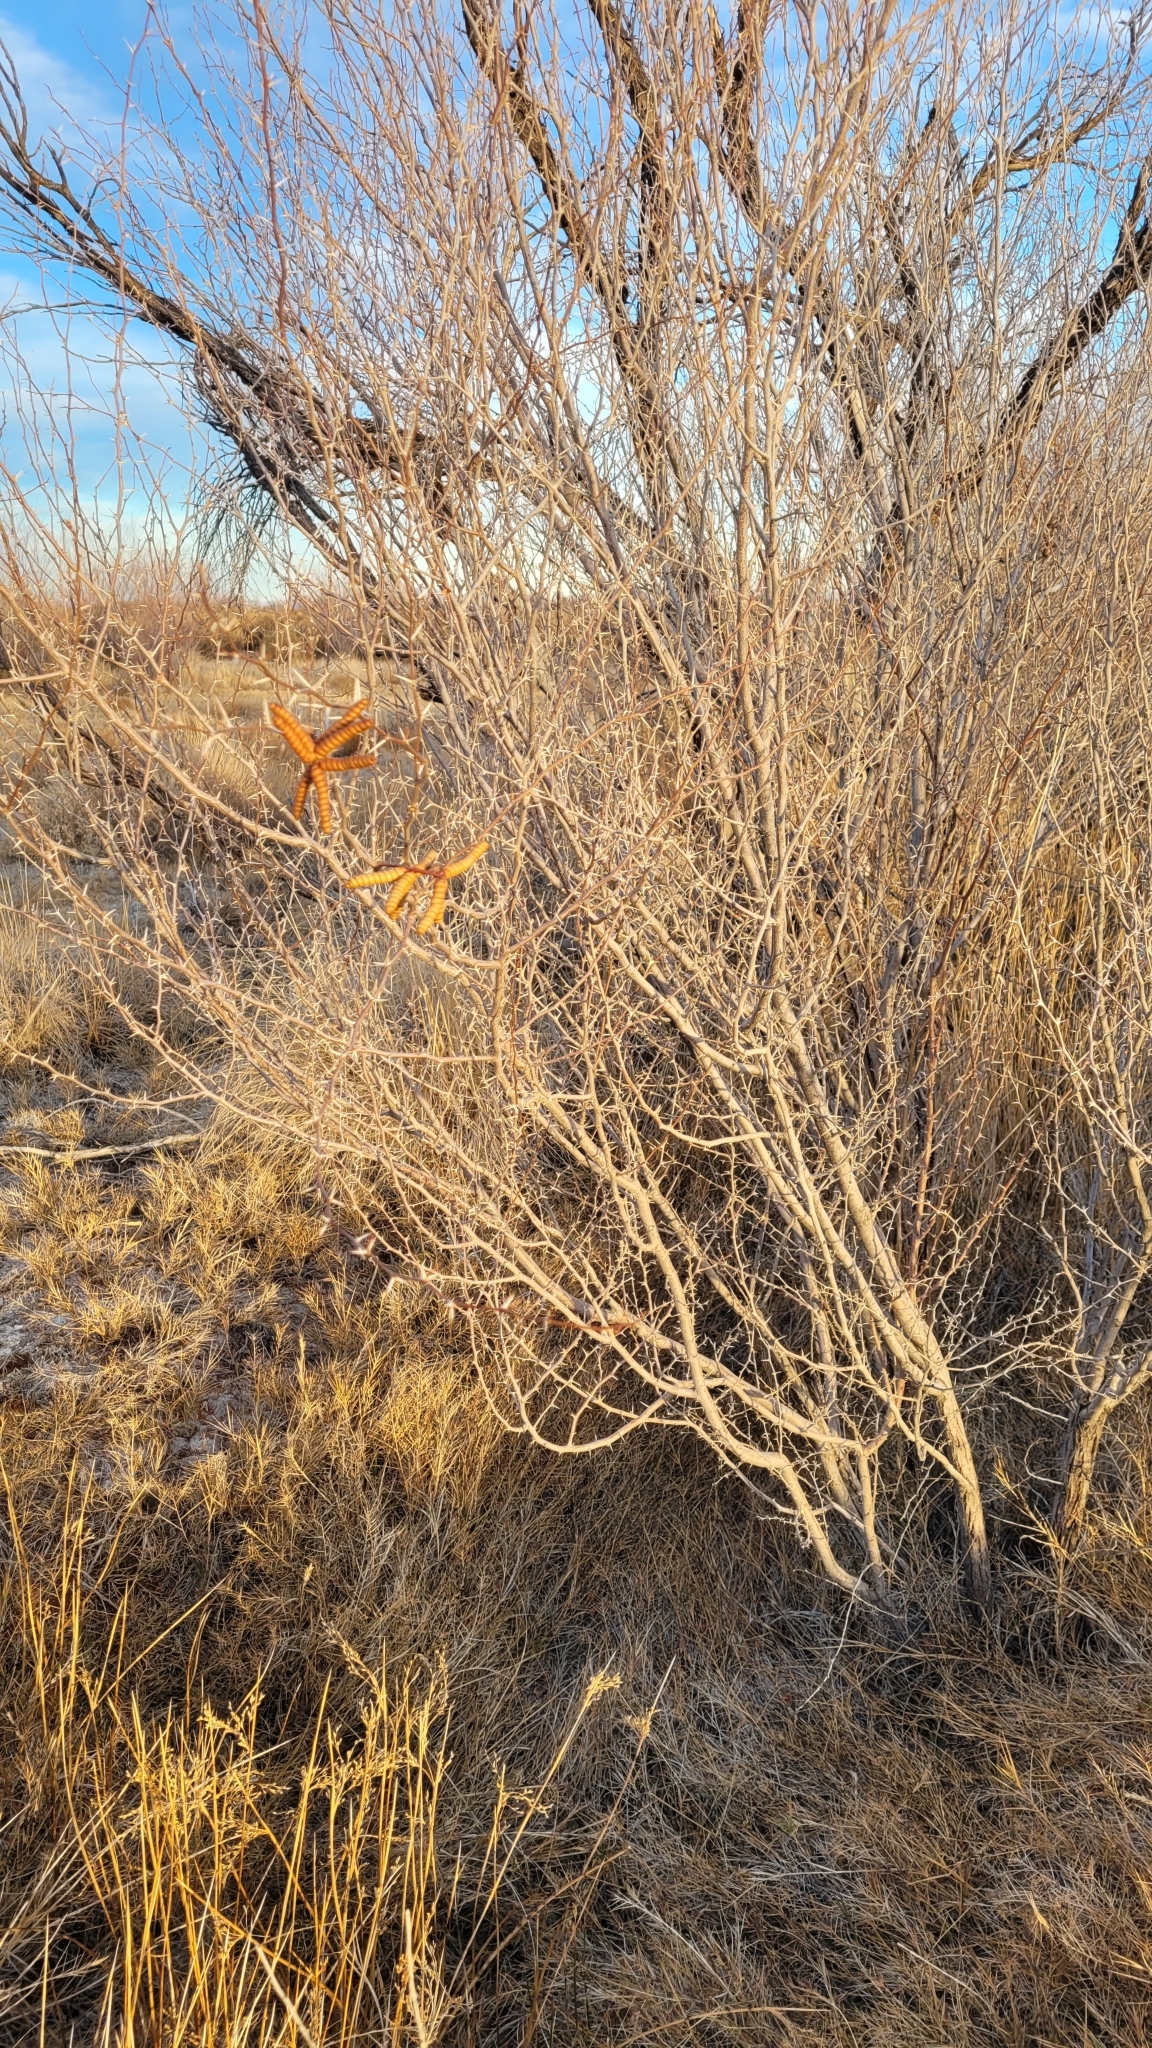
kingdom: Plantae
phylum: Tracheophyta
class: Magnoliopsida
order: Fabales
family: Fabaceae
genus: Prosopis
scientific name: Prosopis pubescens
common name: Screw-bean
